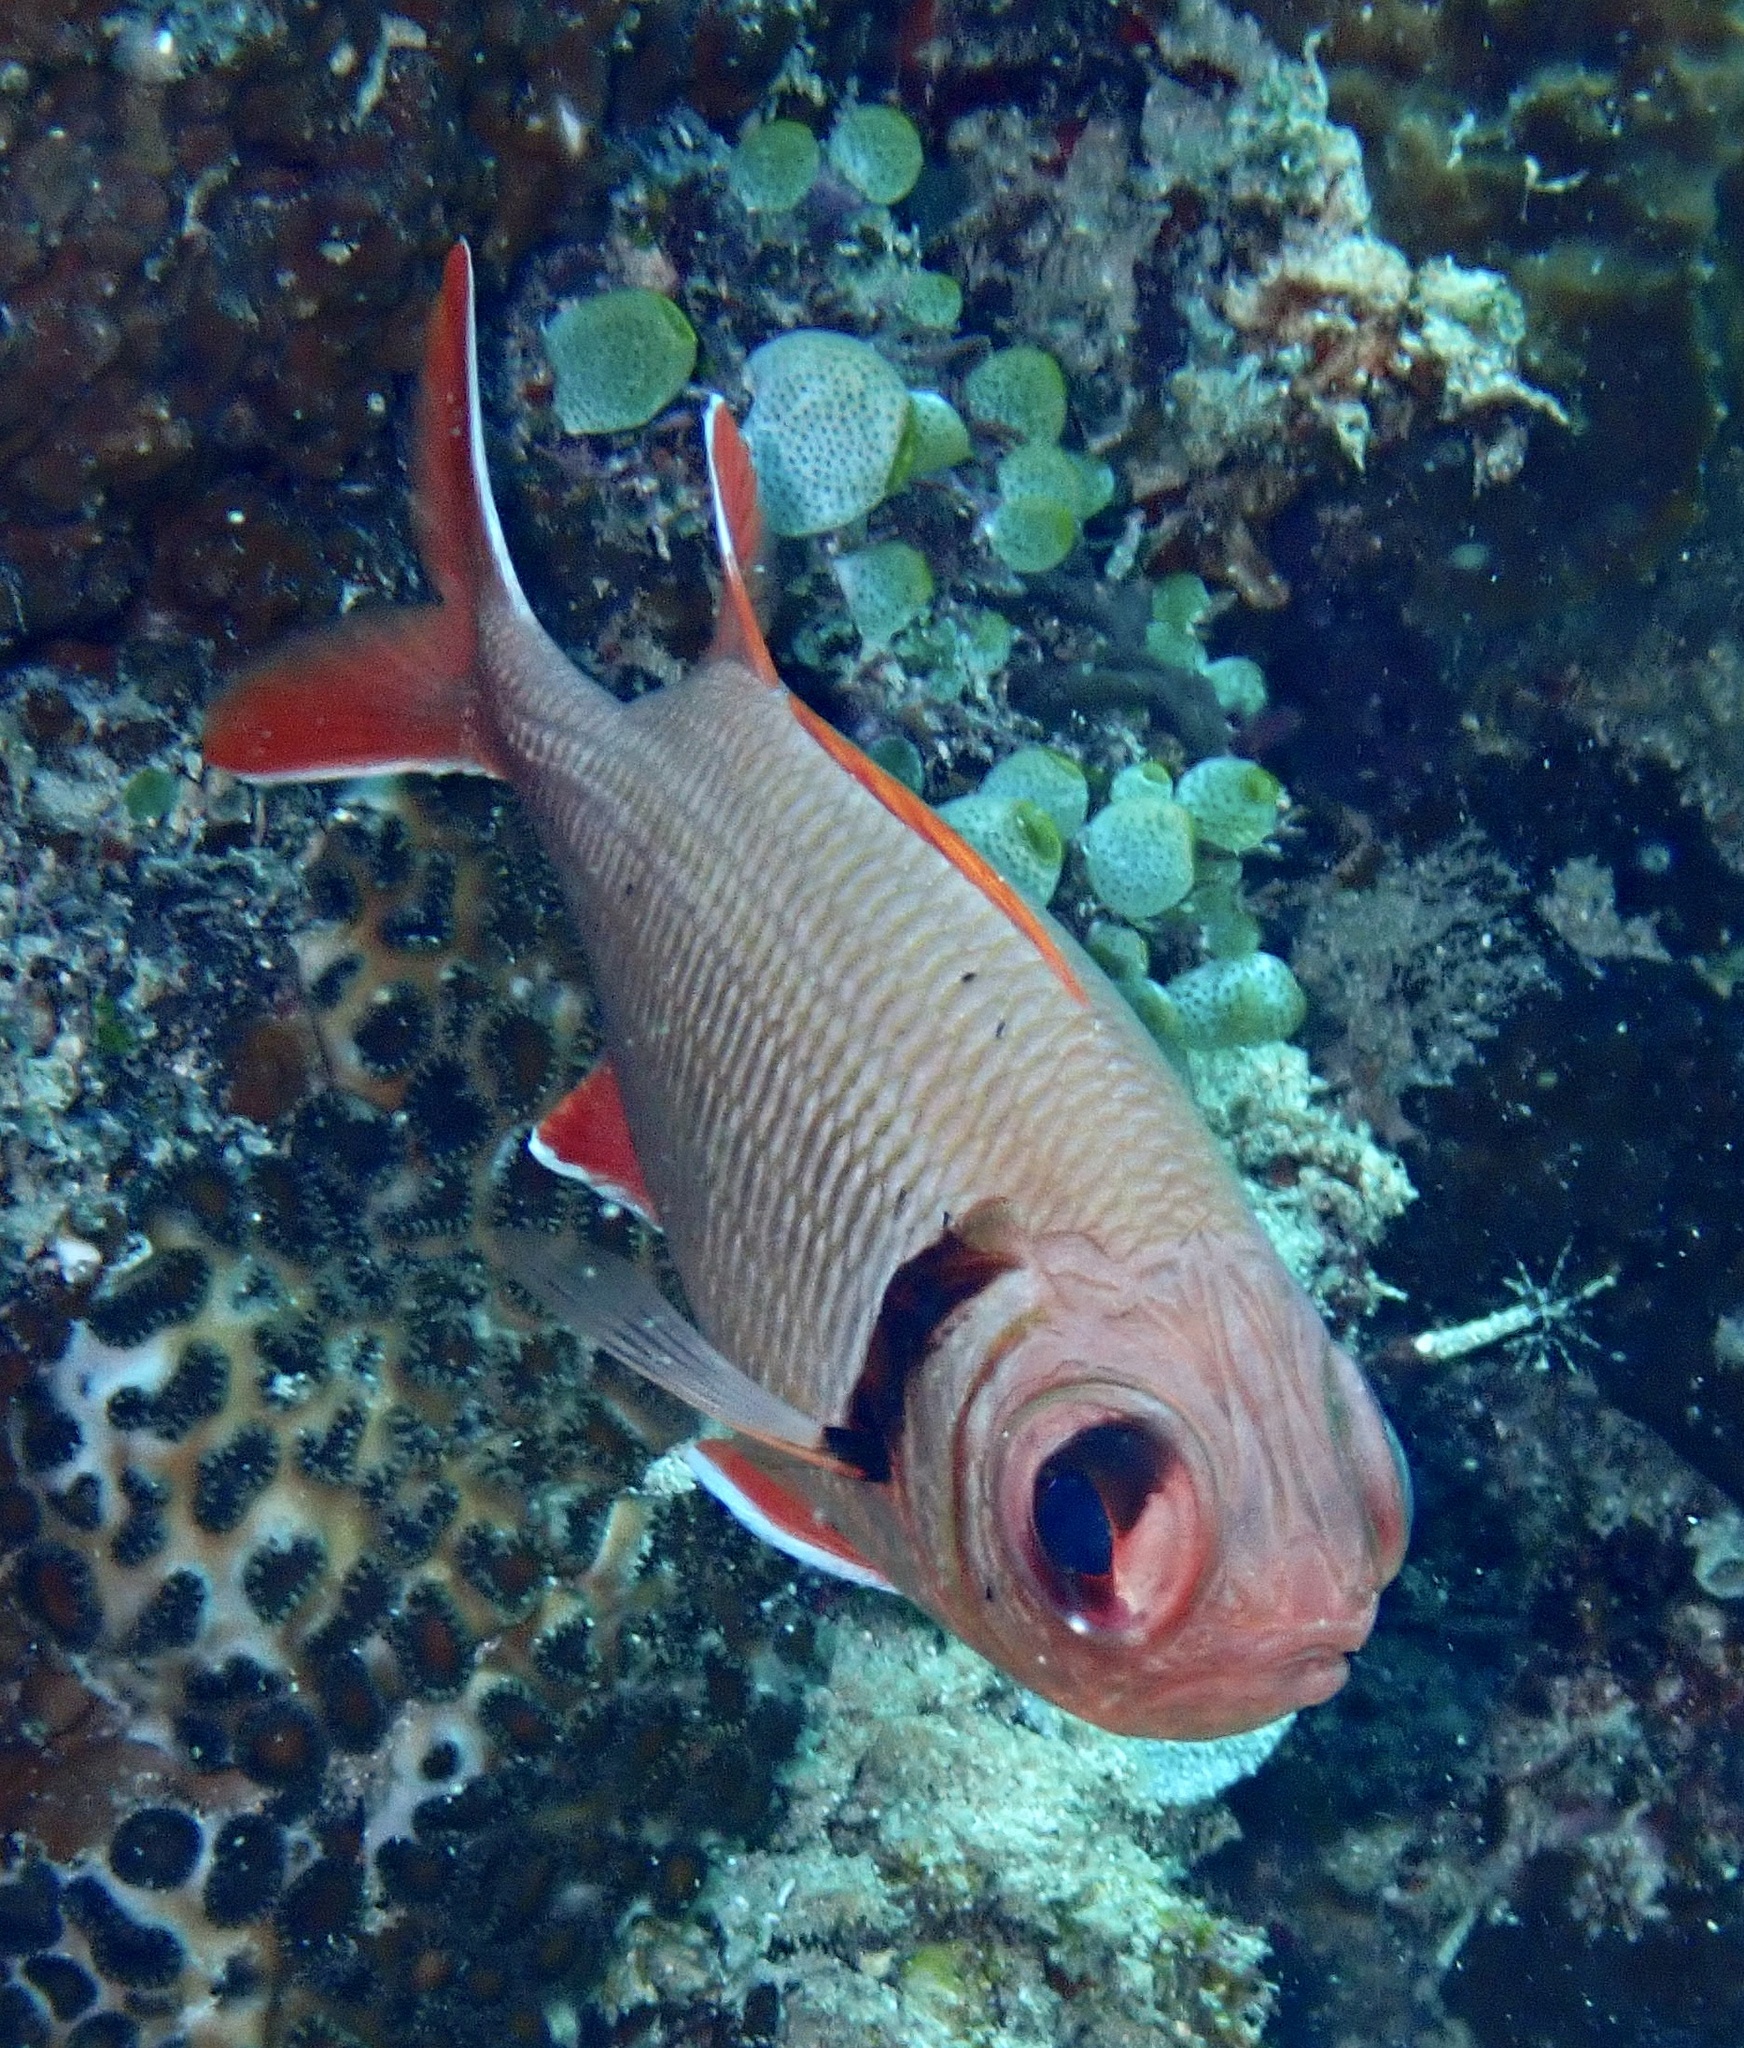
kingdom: Animalia
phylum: Chordata
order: Beryciformes
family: Holocentridae
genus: Myripristis
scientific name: Myripristis kuntee
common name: Epaulette soldierfish
